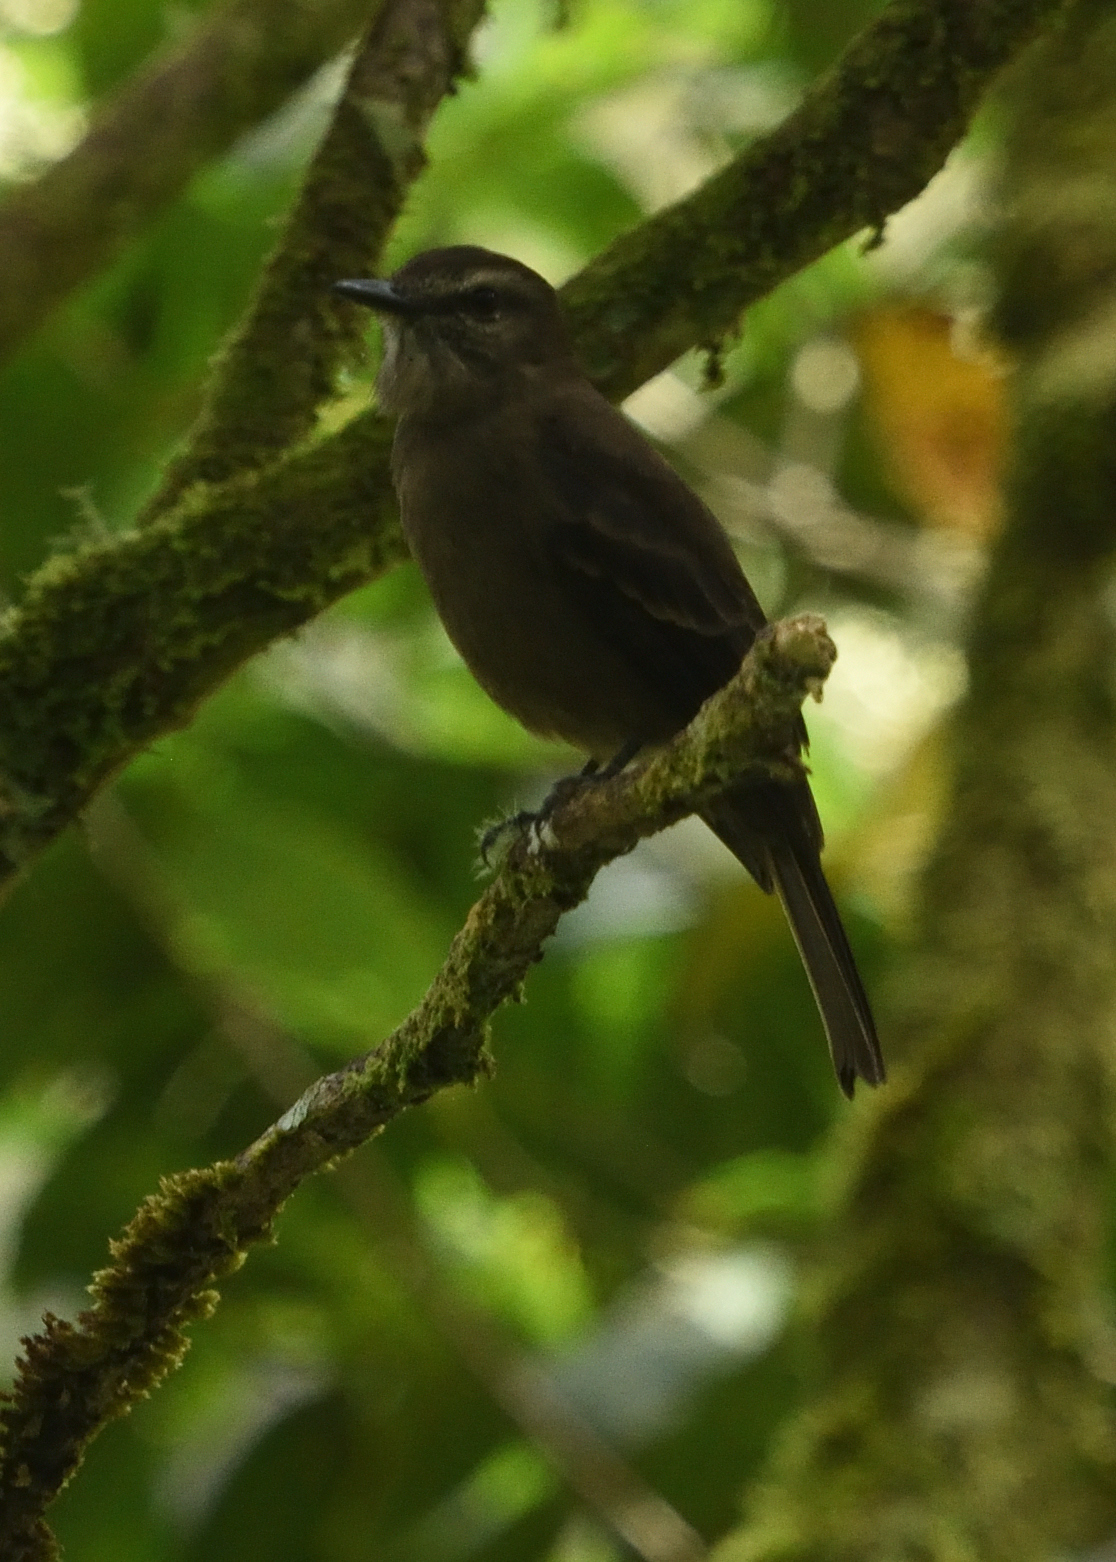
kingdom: Animalia
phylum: Chordata
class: Aves
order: Passeriformes
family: Tyrannidae
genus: Myiotheretes
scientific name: Myiotheretes fumigatus
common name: Smoky bush tyrant
